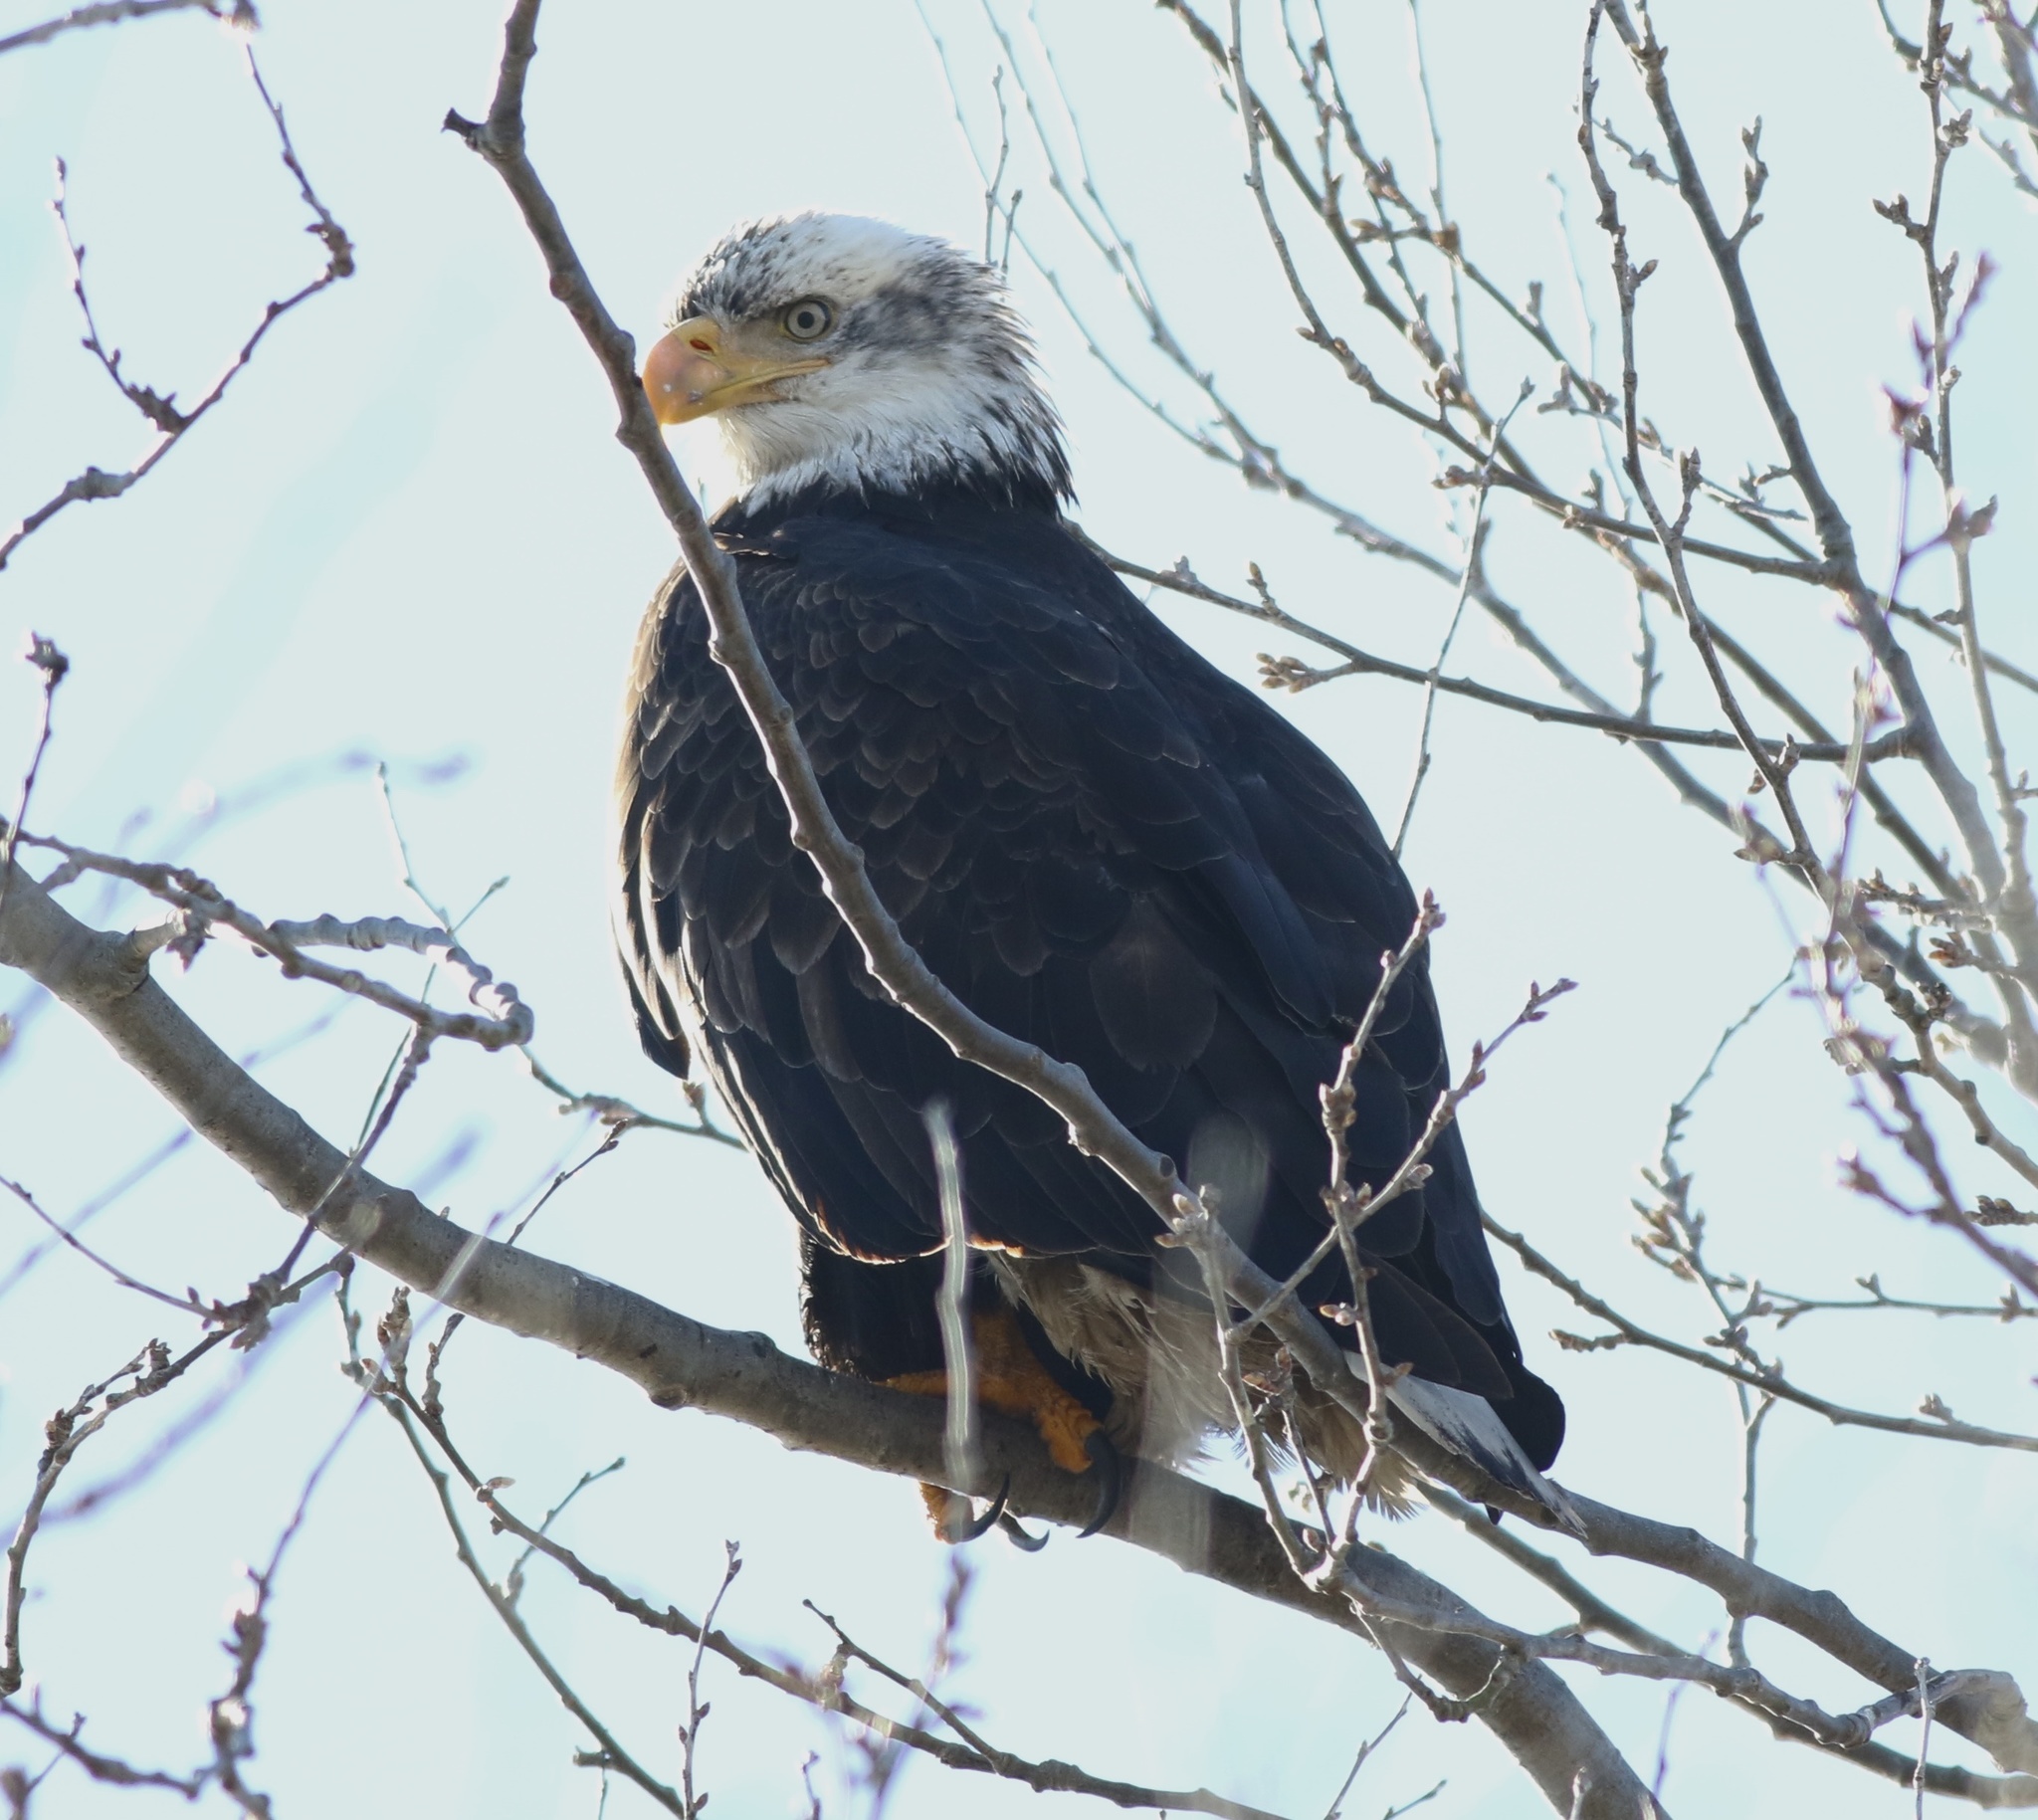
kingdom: Animalia
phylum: Chordata
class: Aves
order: Accipitriformes
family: Accipitridae
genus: Haliaeetus
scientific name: Haliaeetus leucocephalus
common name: Bald eagle
